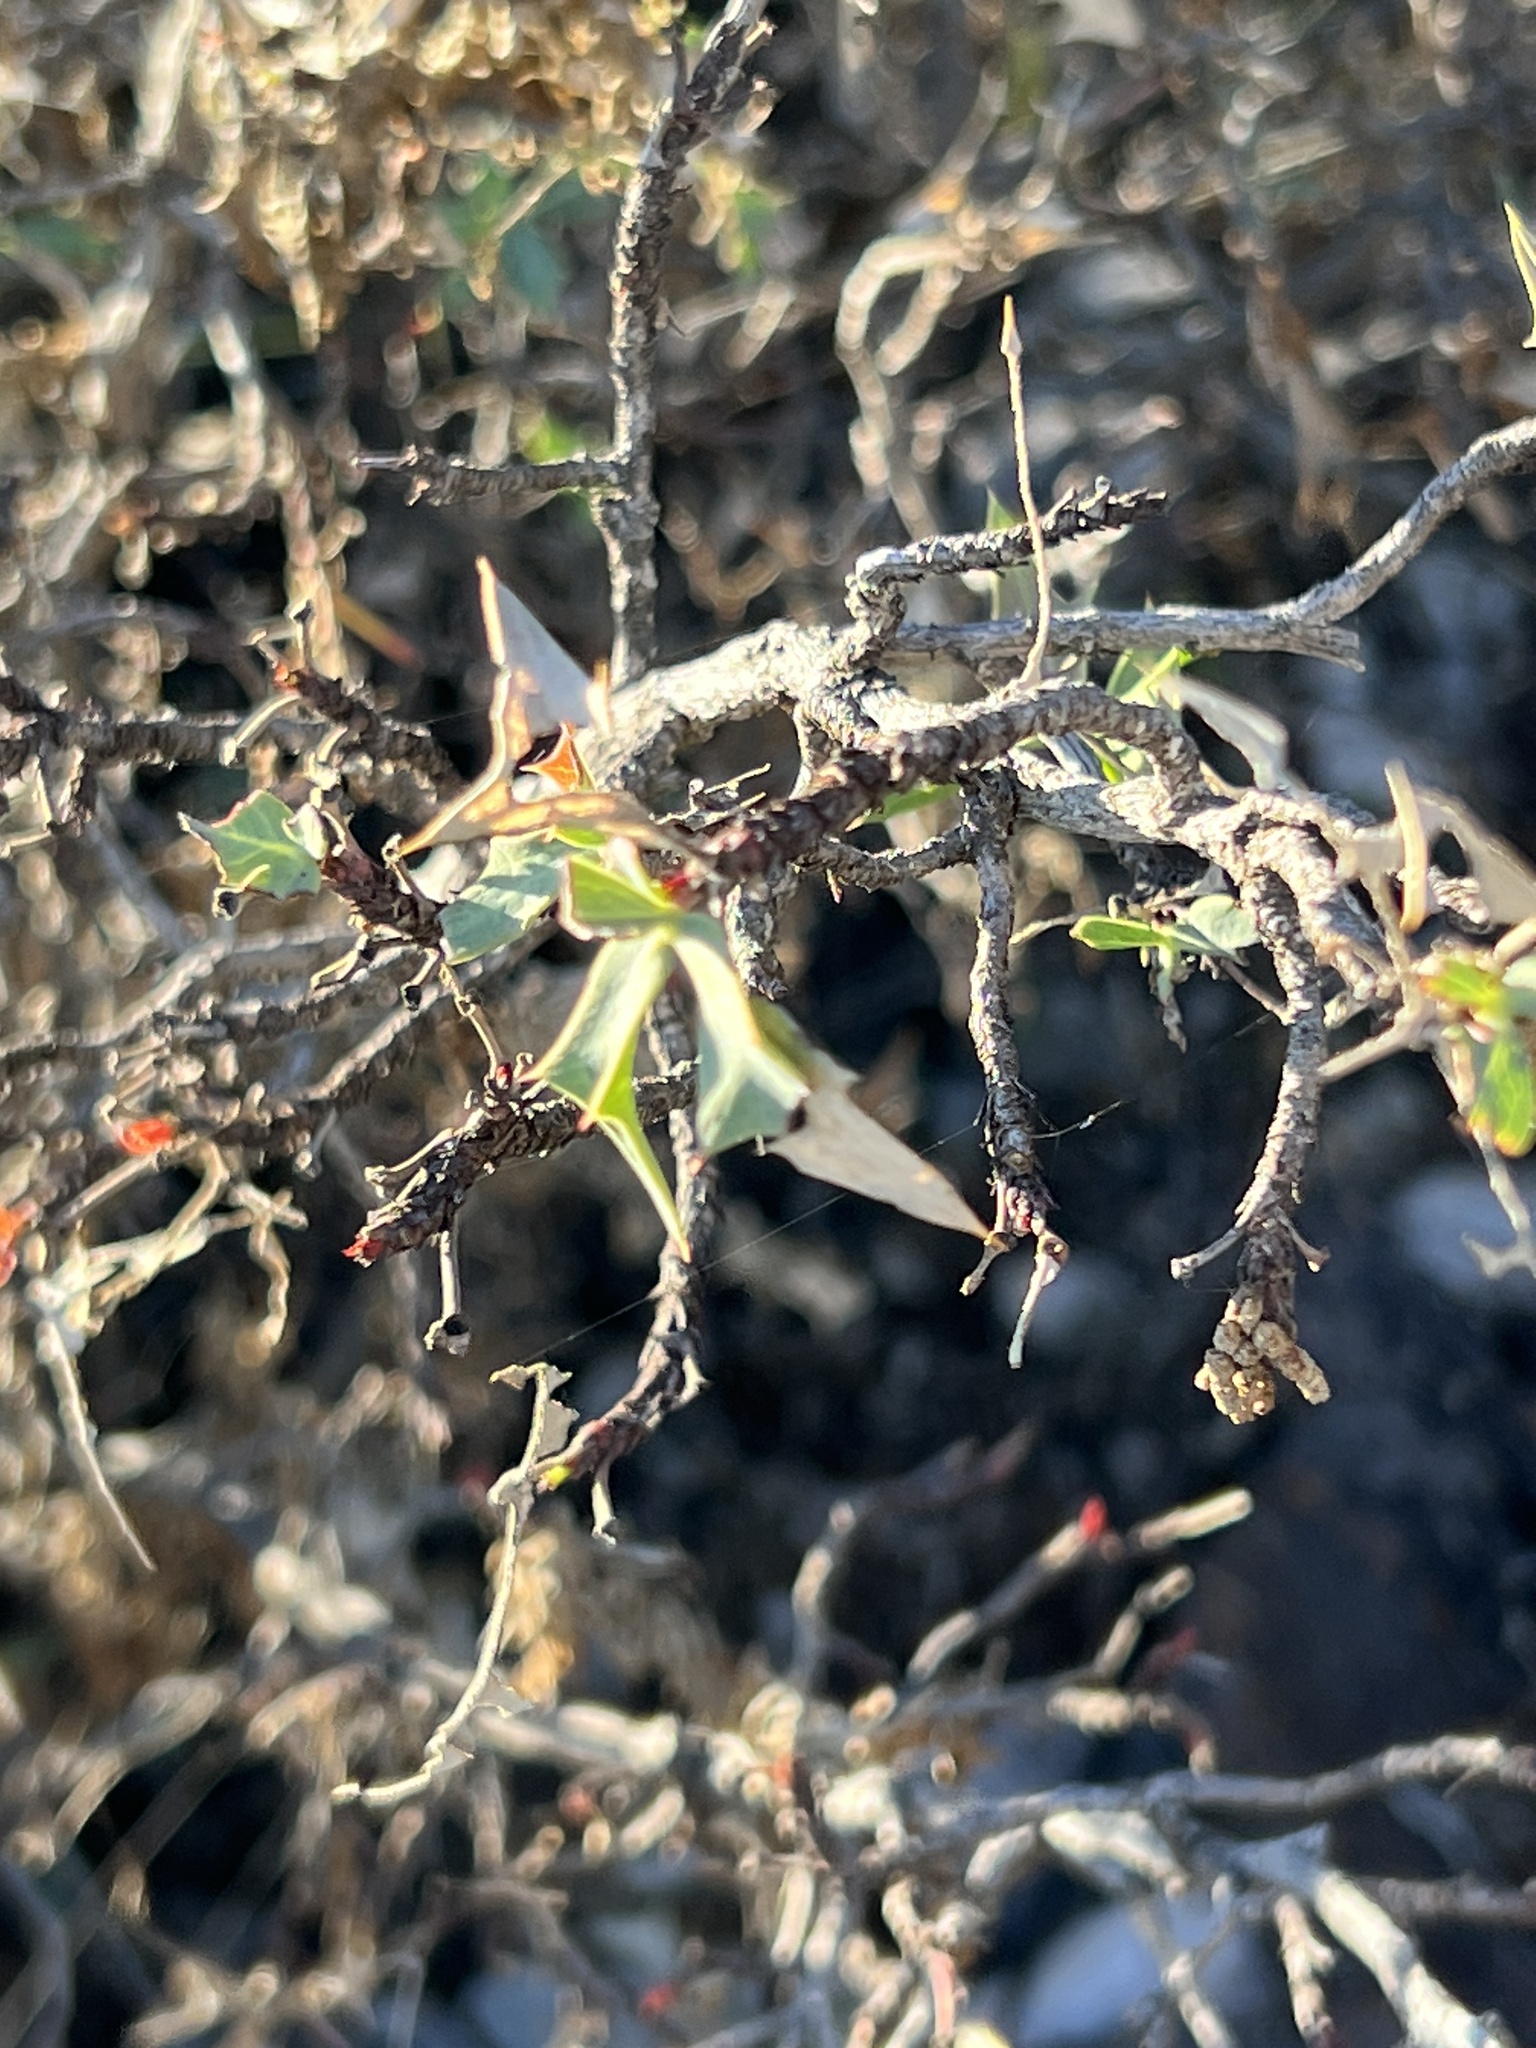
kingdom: Plantae
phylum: Tracheophyta
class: Magnoliopsida
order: Ranunculales
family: Berberidaceae
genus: Alloberberis
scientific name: Alloberberis trifoliolata
